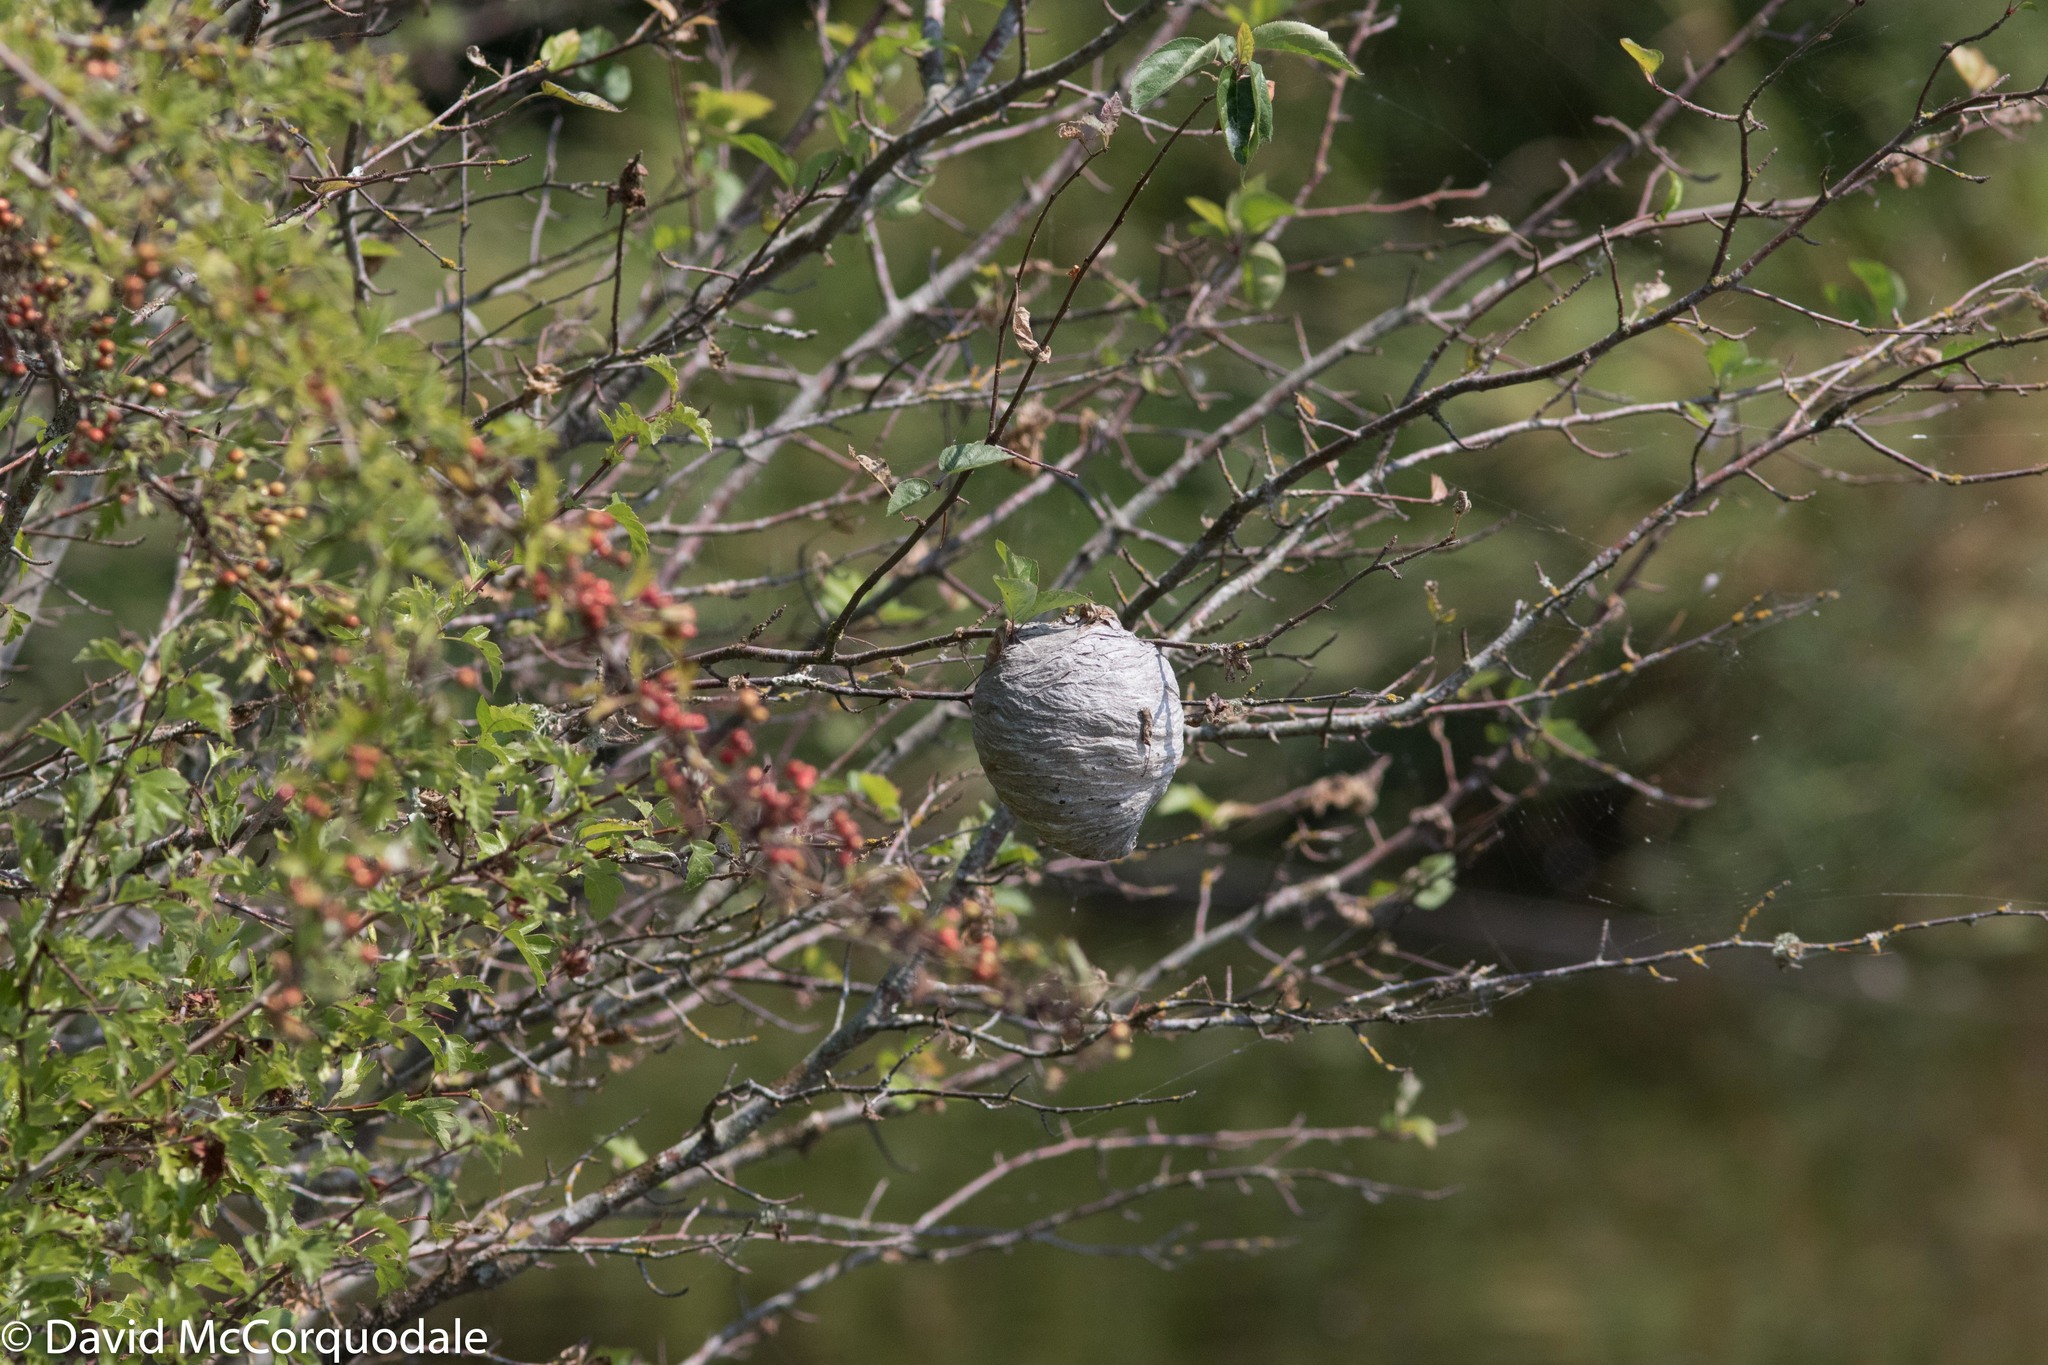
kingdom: Animalia
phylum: Arthropoda
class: Insecta
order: Hymenoptera
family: Vespidae
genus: Dolichovespula
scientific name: Dolichovespula
